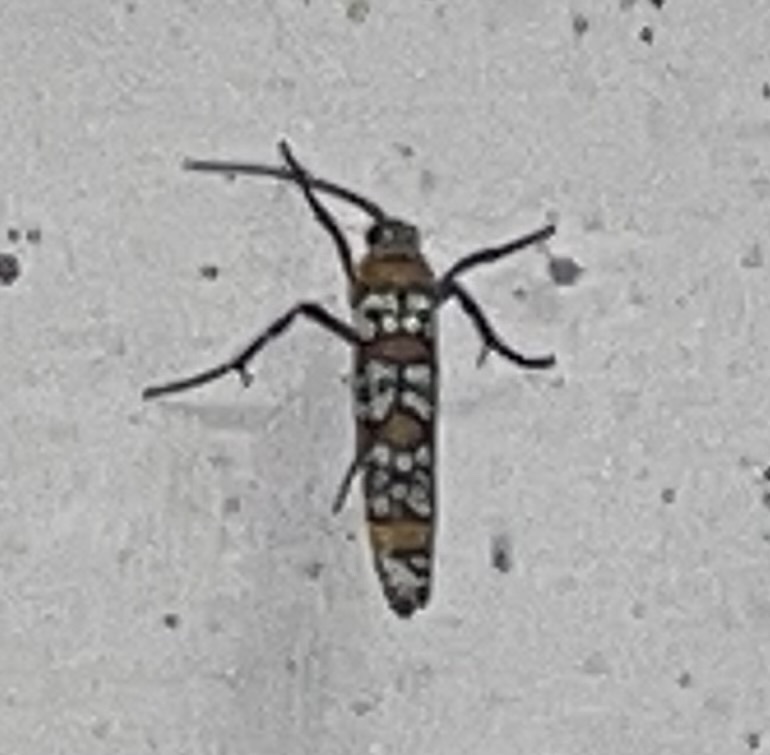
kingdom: Animalia
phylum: Arthropoda
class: Insecta
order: Lepidoptera
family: Attevidae
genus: Atteva
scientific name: Atteva punctella
